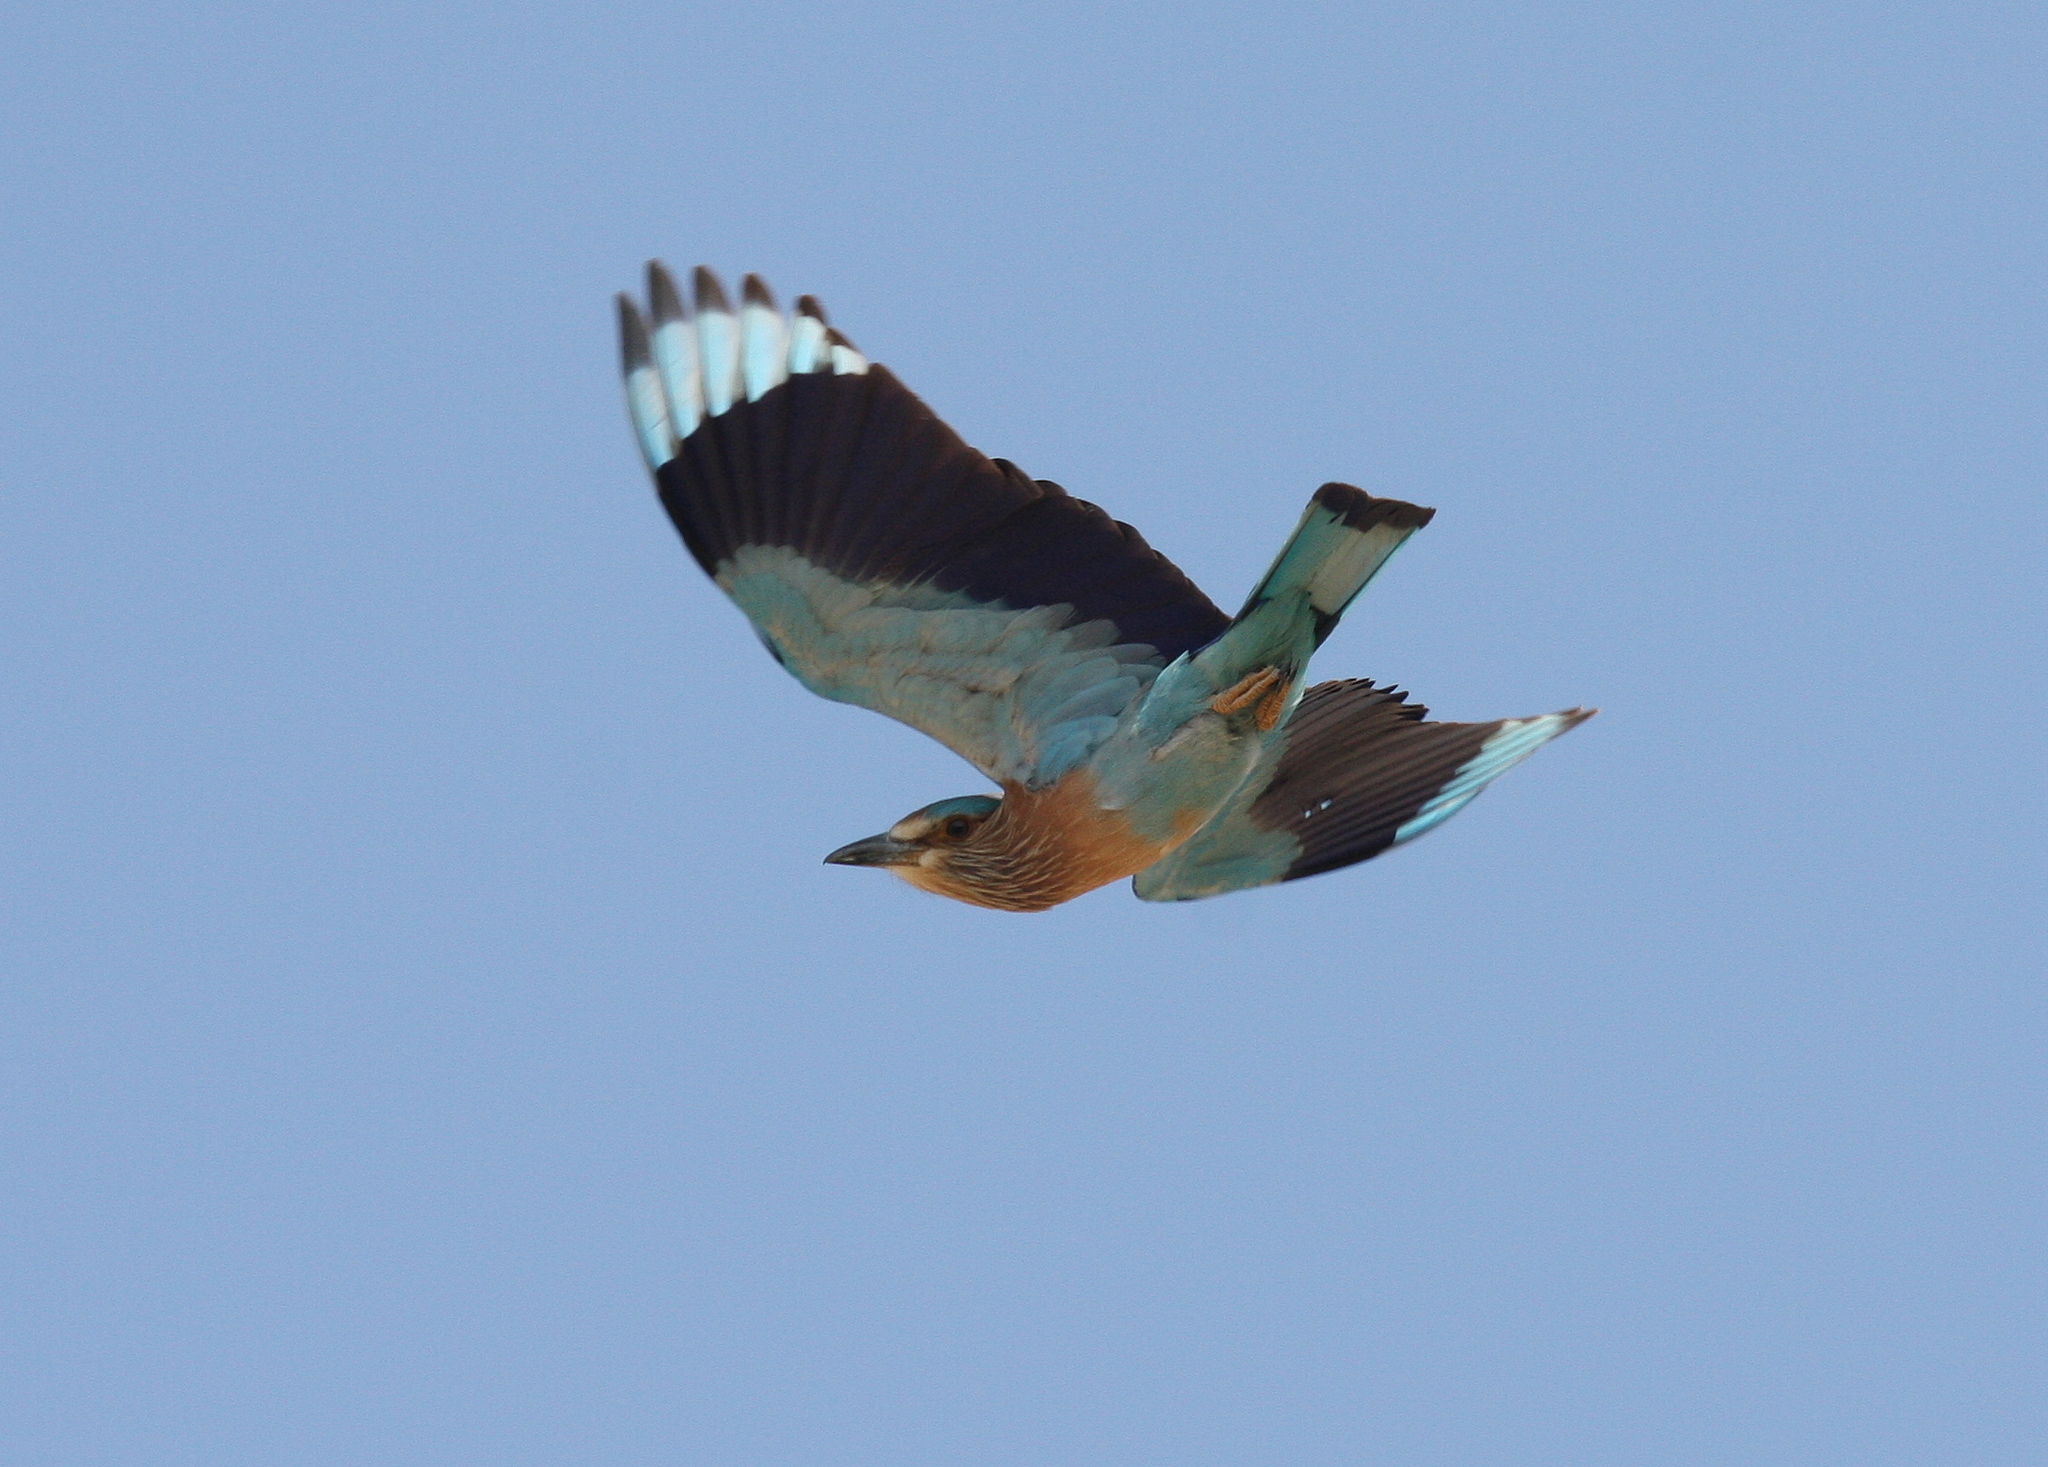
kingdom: Animalia
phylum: Chordata
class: Aves
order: Coraciiformes
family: Coraciidae
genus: Coracias
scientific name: Coracias benghalensis
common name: Indian roller
